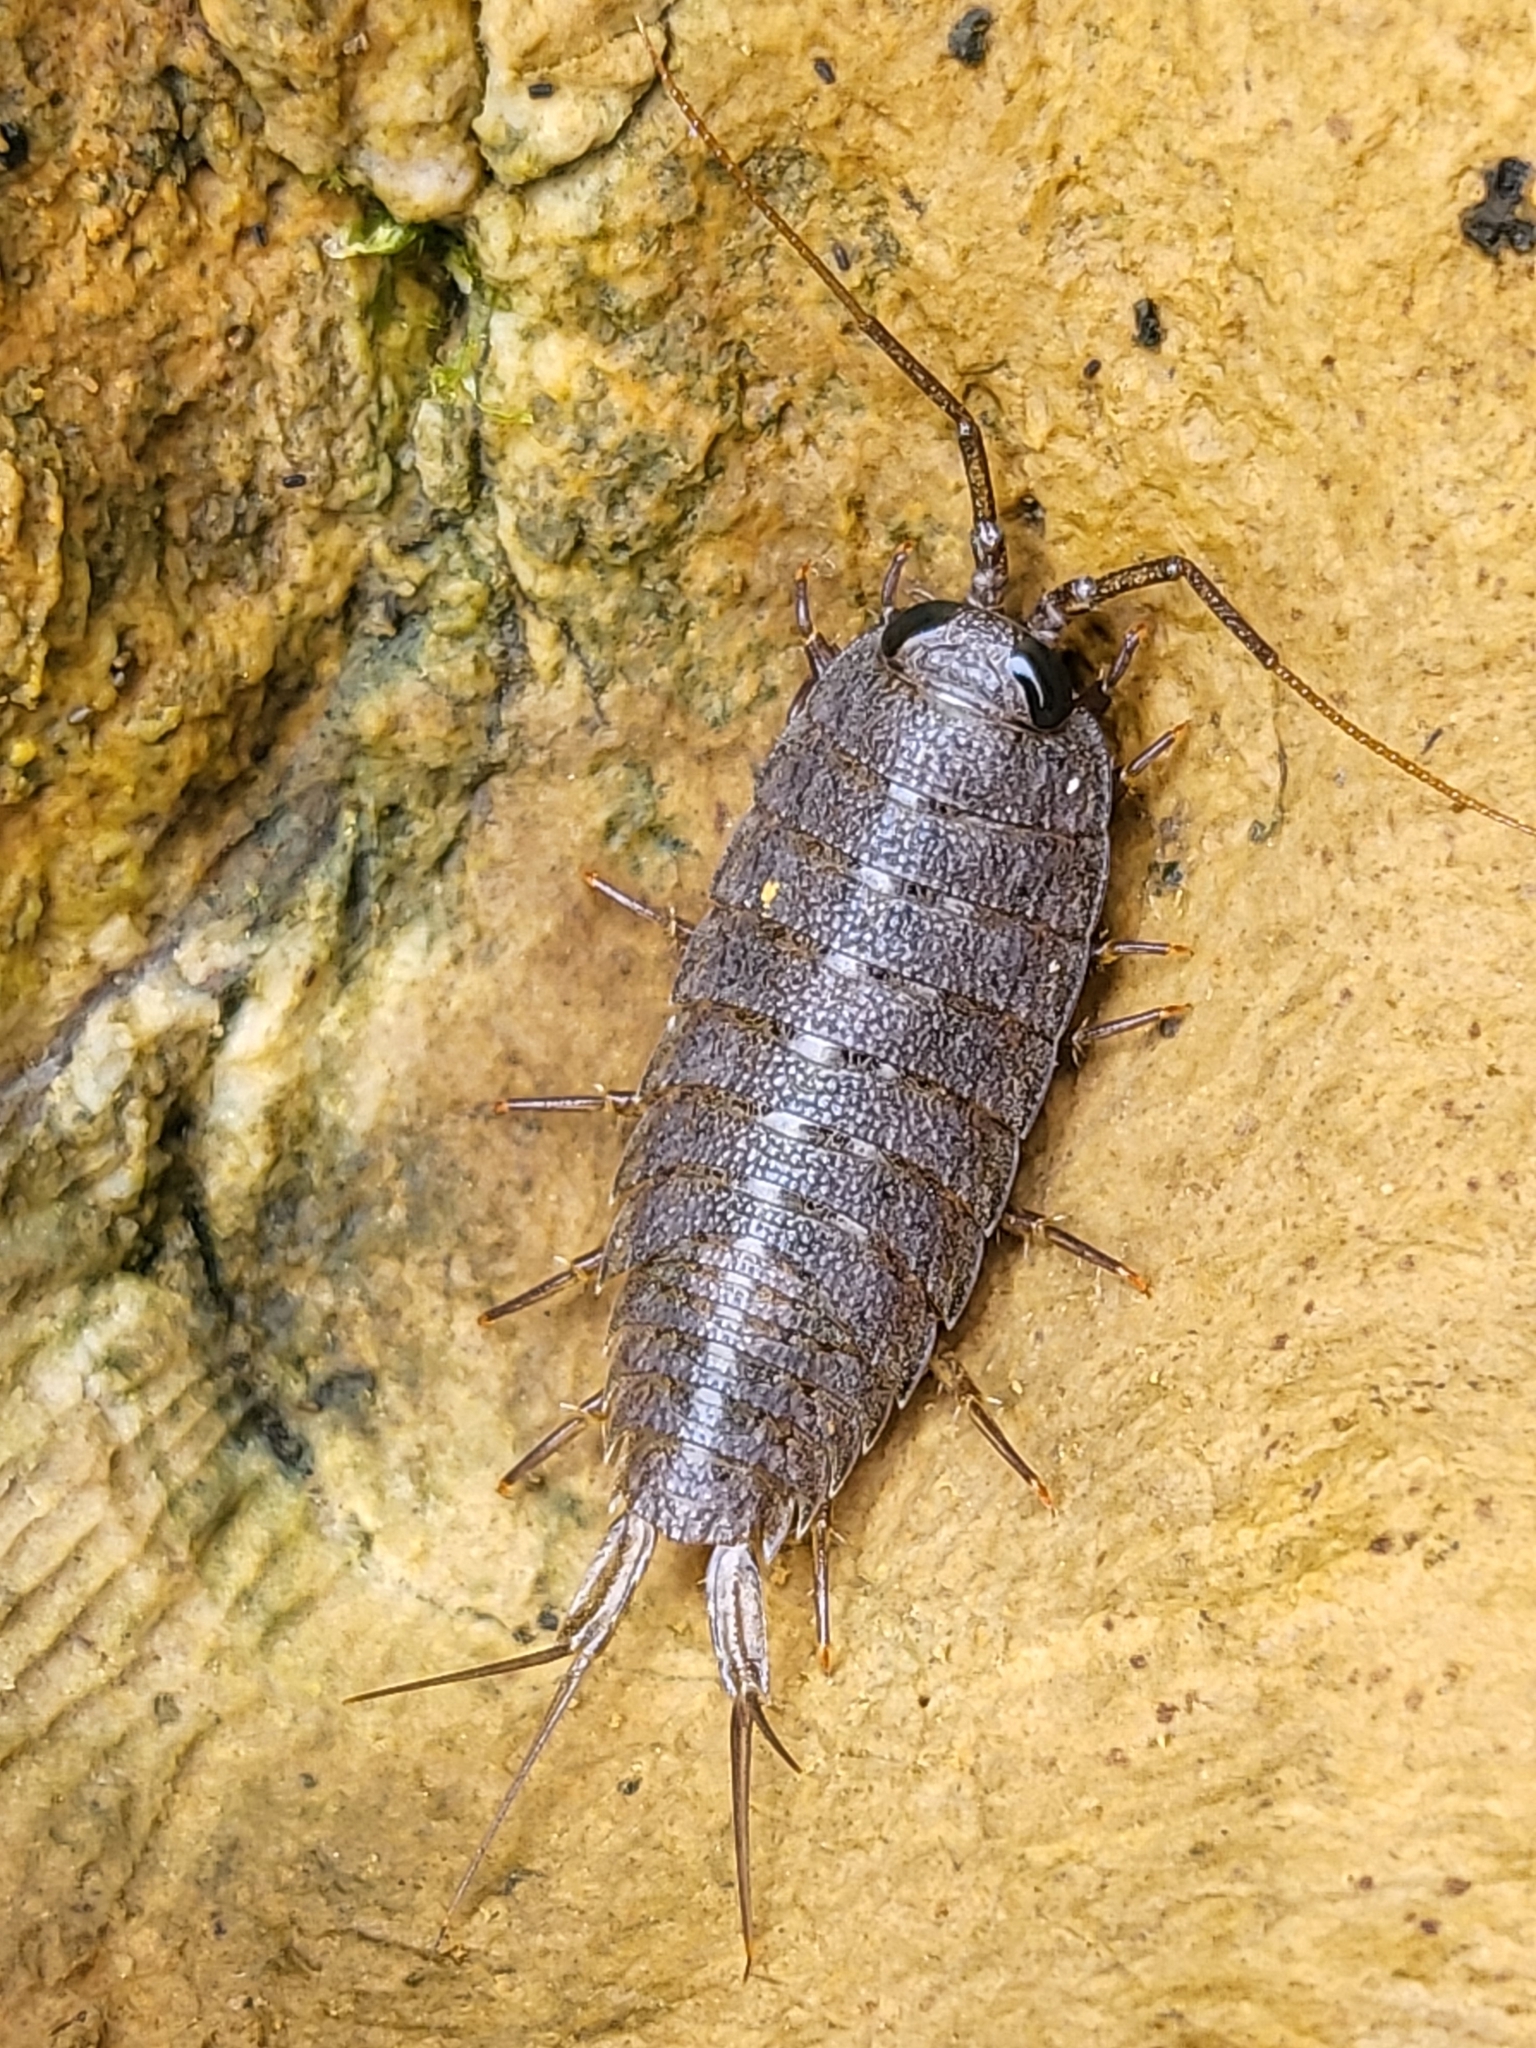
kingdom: Animalia
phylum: Arthropoda
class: Malacostraca
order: Isopoda
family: Ligiidae
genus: Ligia
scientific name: Ligia occidentalis
